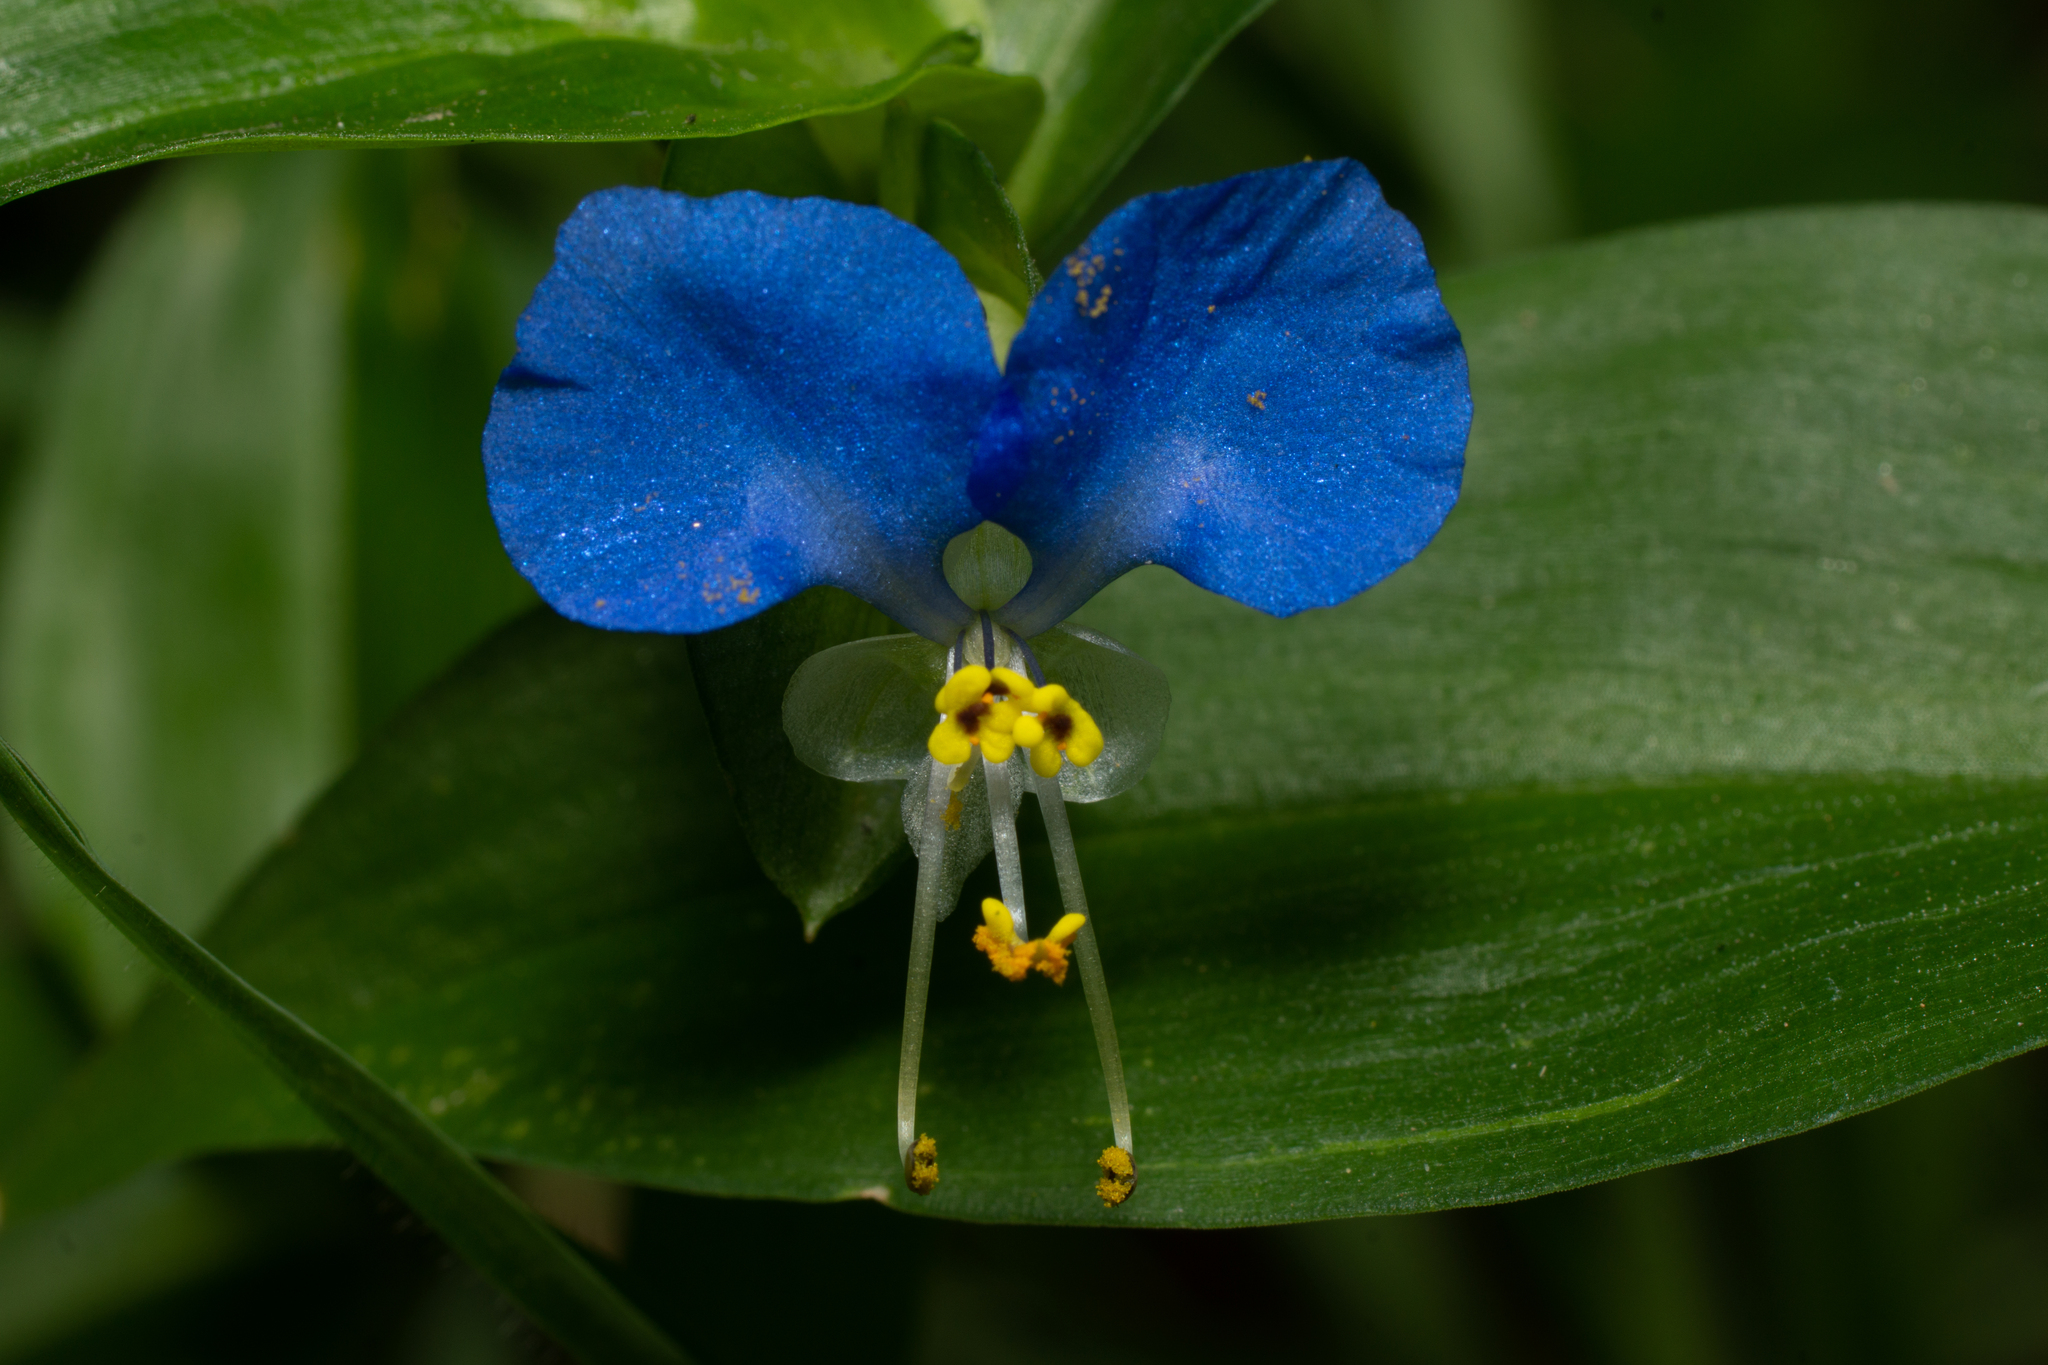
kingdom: Plantae
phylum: Tracheophyta
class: Liliopsida
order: Commelinales
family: Commelinaceae
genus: Commelina
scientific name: Commelina communis
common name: Asiatic dayflower
